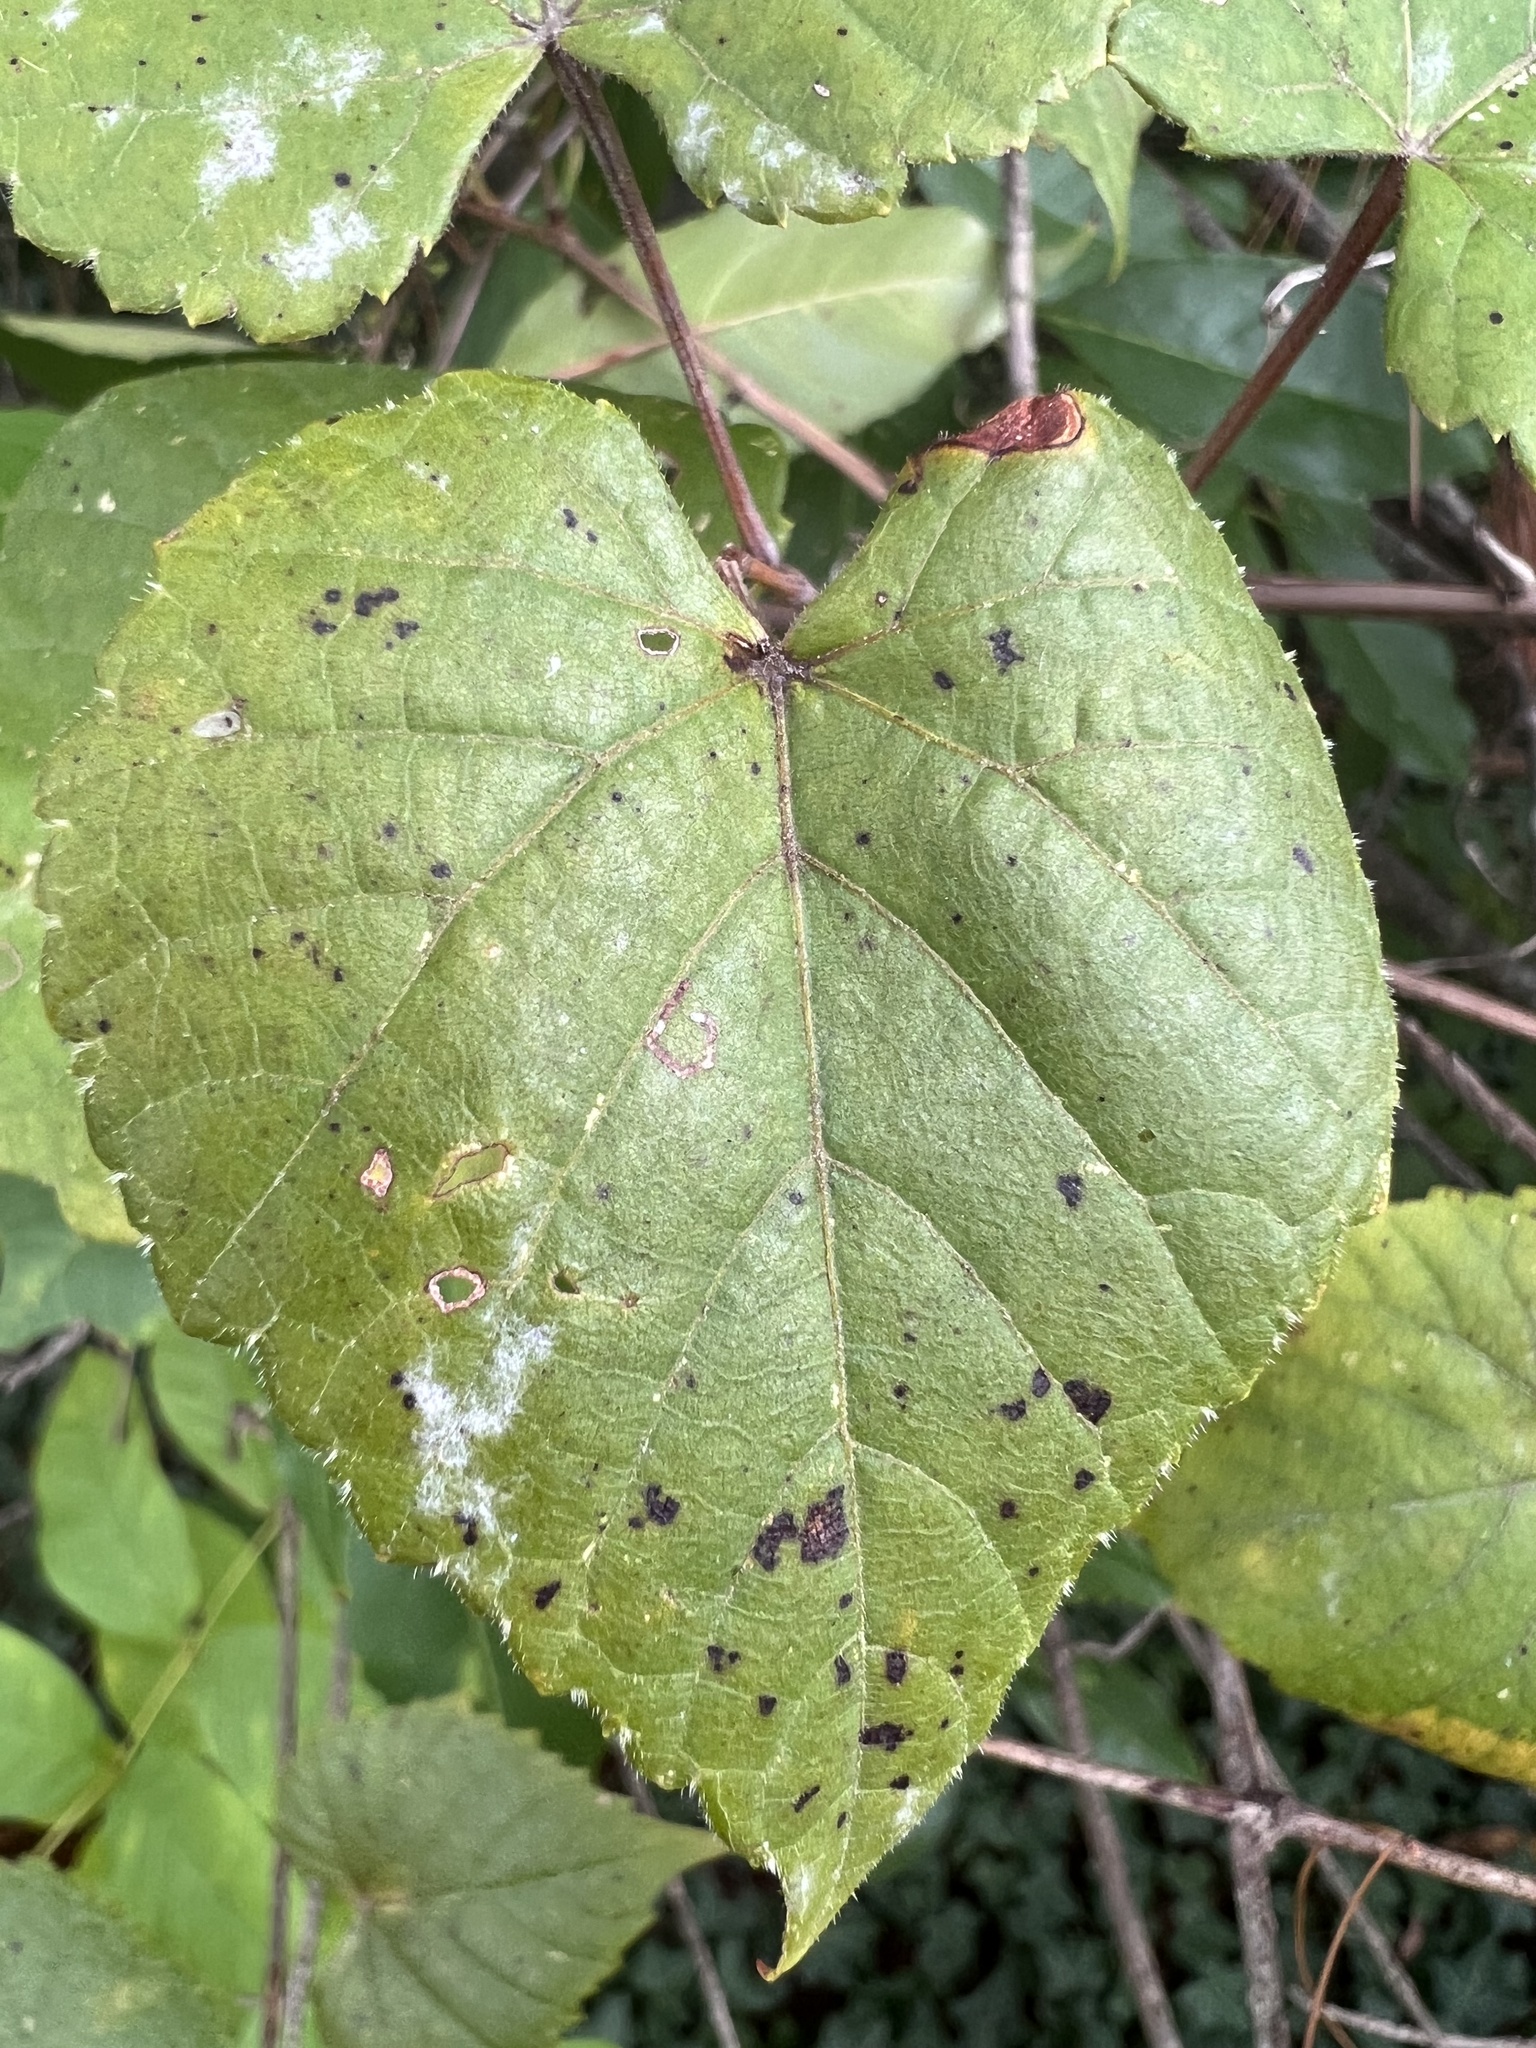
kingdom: Fungi
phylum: Ascomycota
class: Leotiomycetes
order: Helotiales
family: Erysiphaceae
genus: Erysiphe
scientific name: Erysiphe necator
